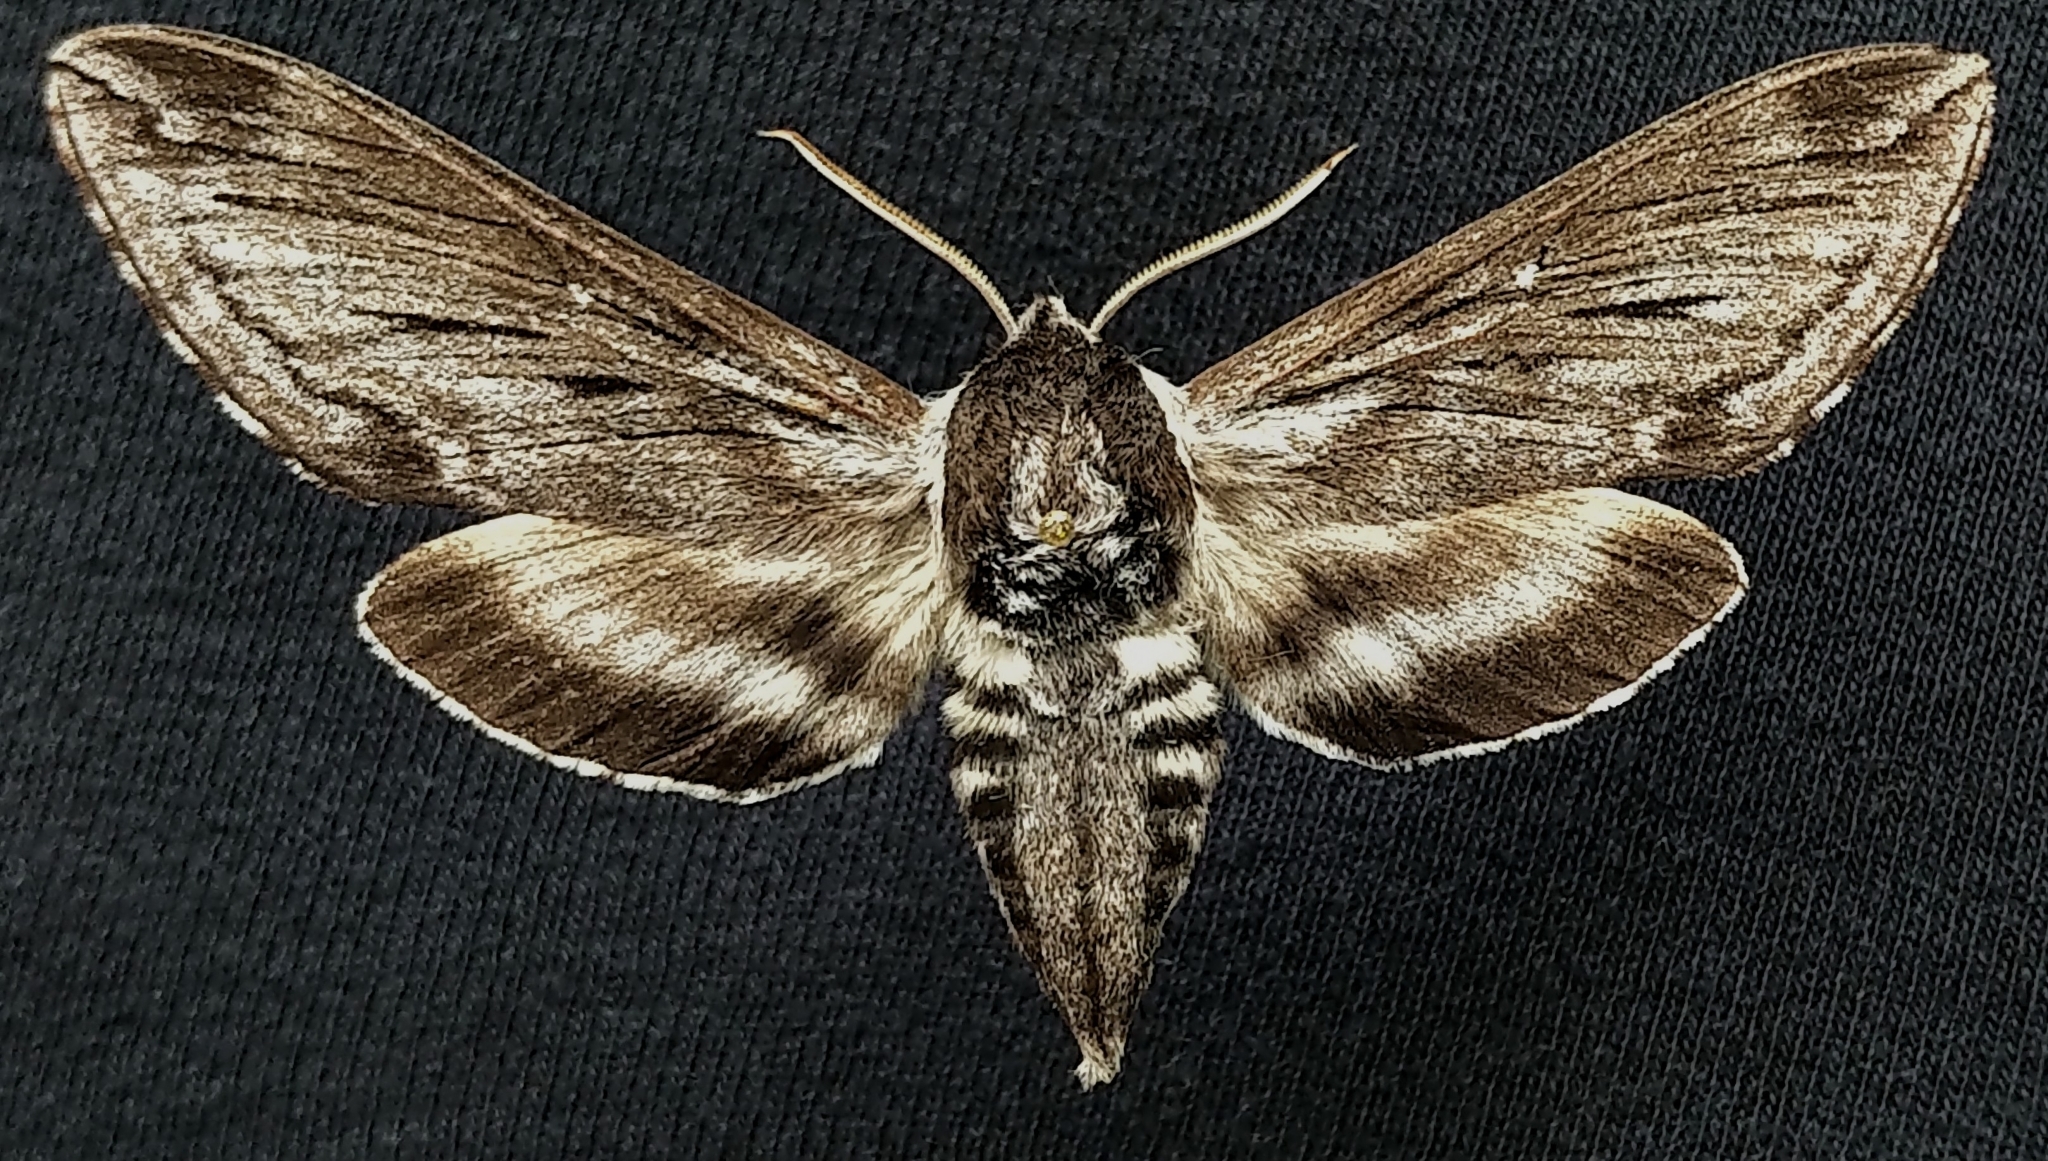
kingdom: Animalia
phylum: Arthropoda
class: Insecta
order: Lepidoptera
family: Sphingidae
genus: Sphinx
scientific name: Sphinx poecila
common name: Northern apple sphinx
